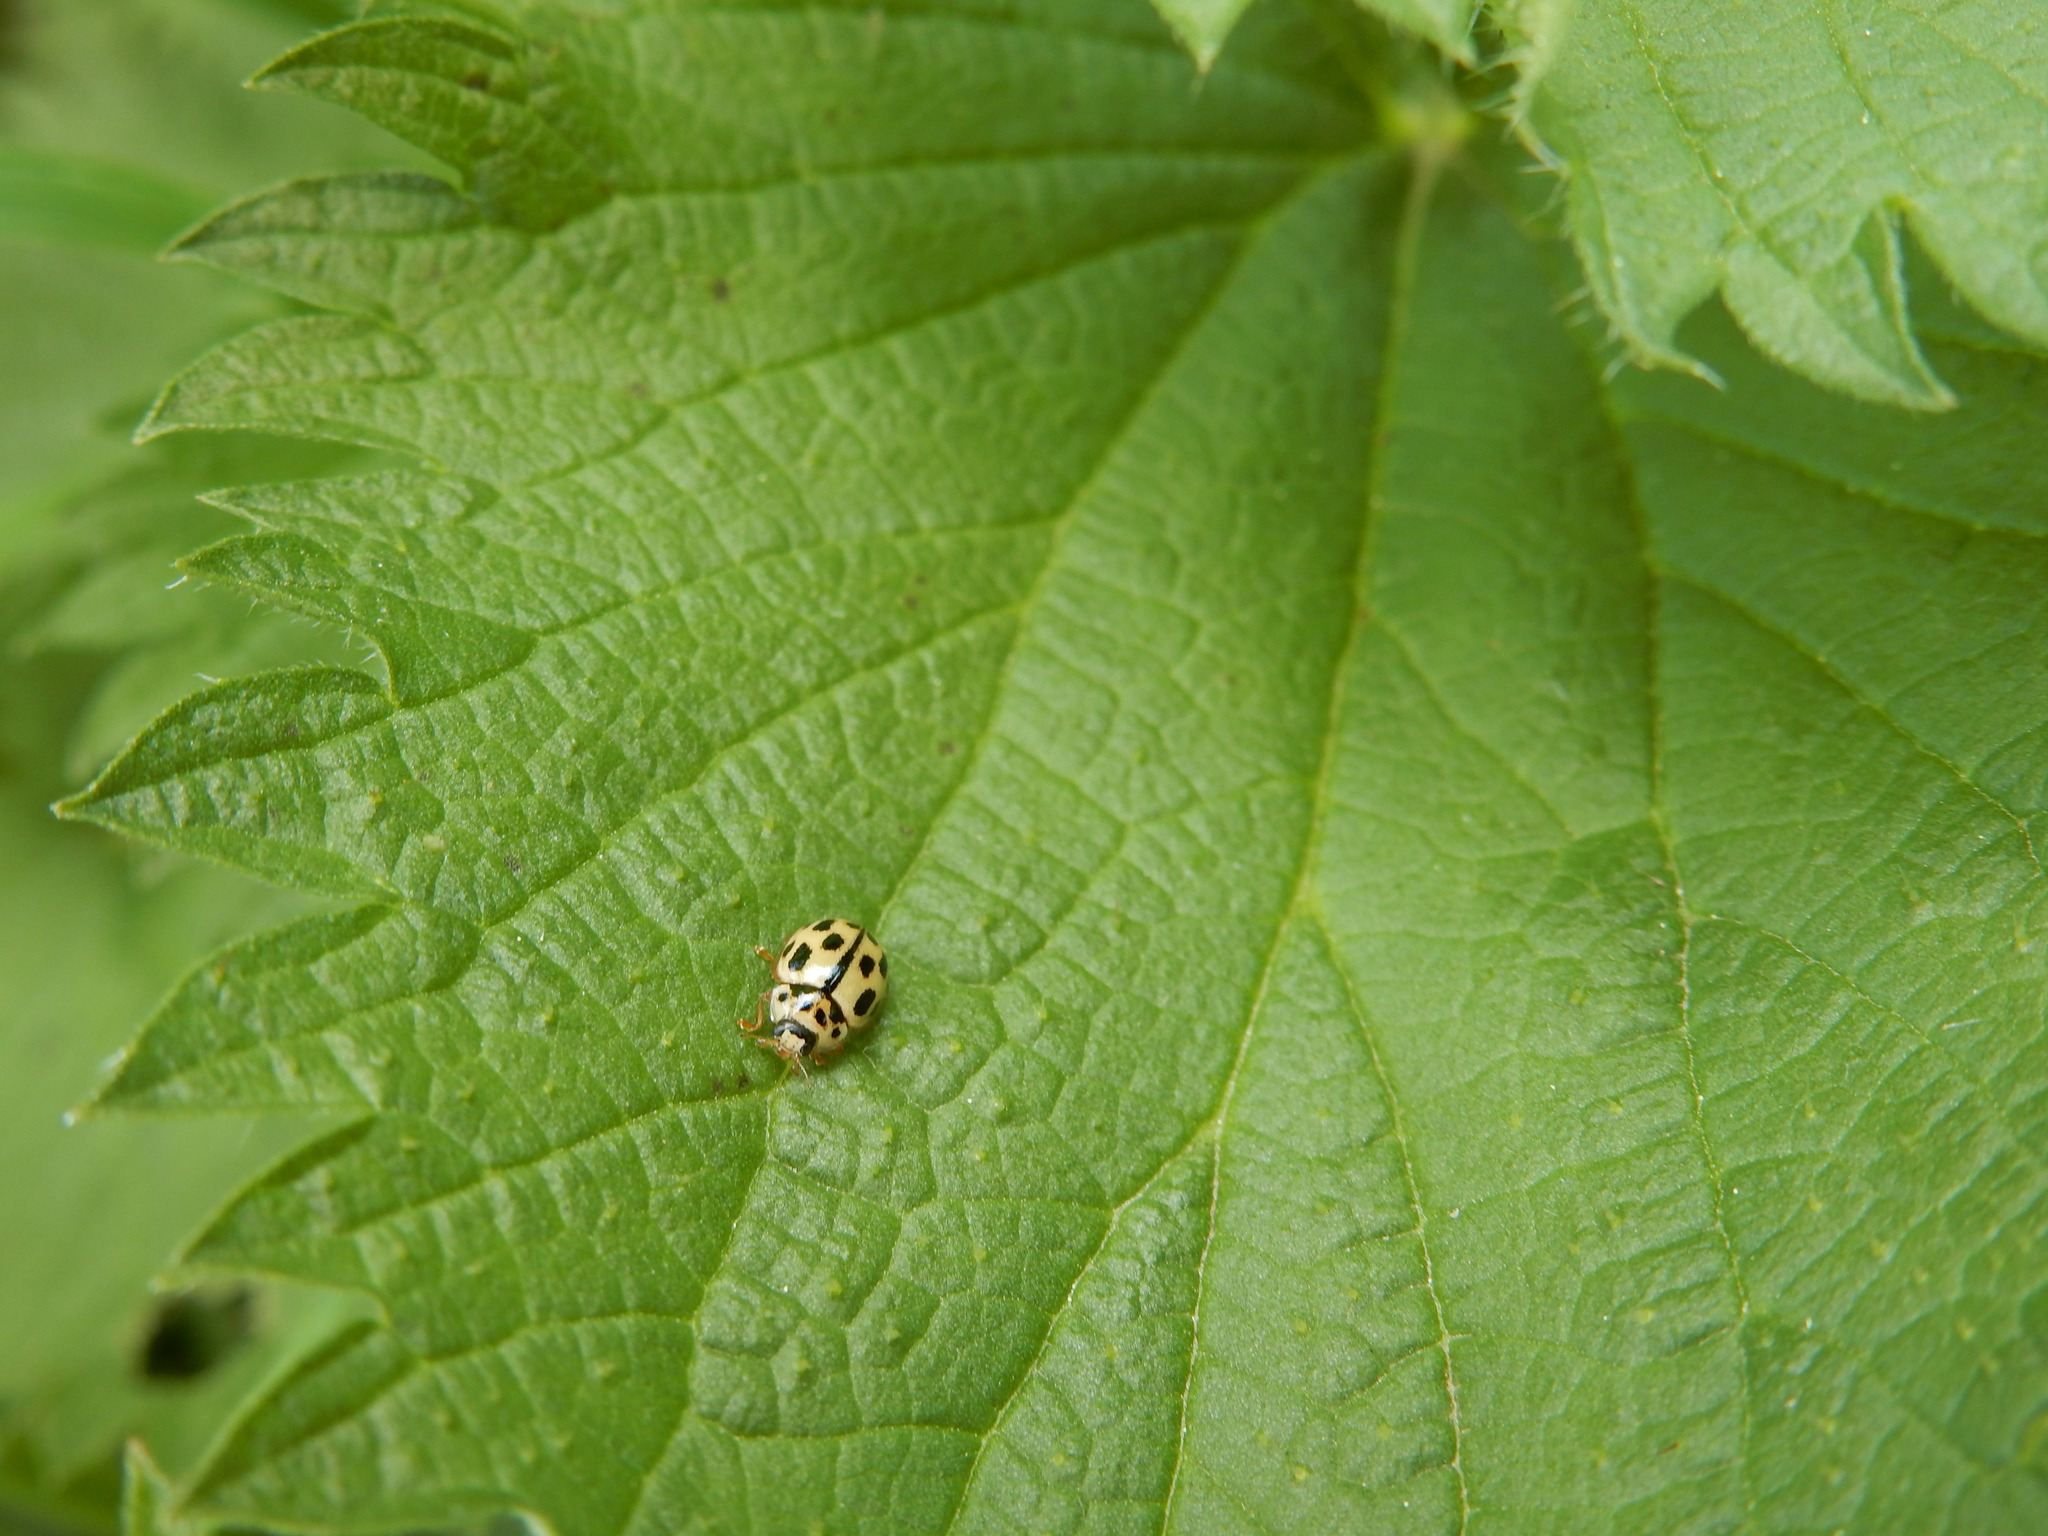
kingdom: Animalia
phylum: Arthropoda
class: Insecta
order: Coleoptera
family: Coccinellidae
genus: Propylaea
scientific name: Propylaea quatuordecimpunctata
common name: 14-spotted ladybird beetle
